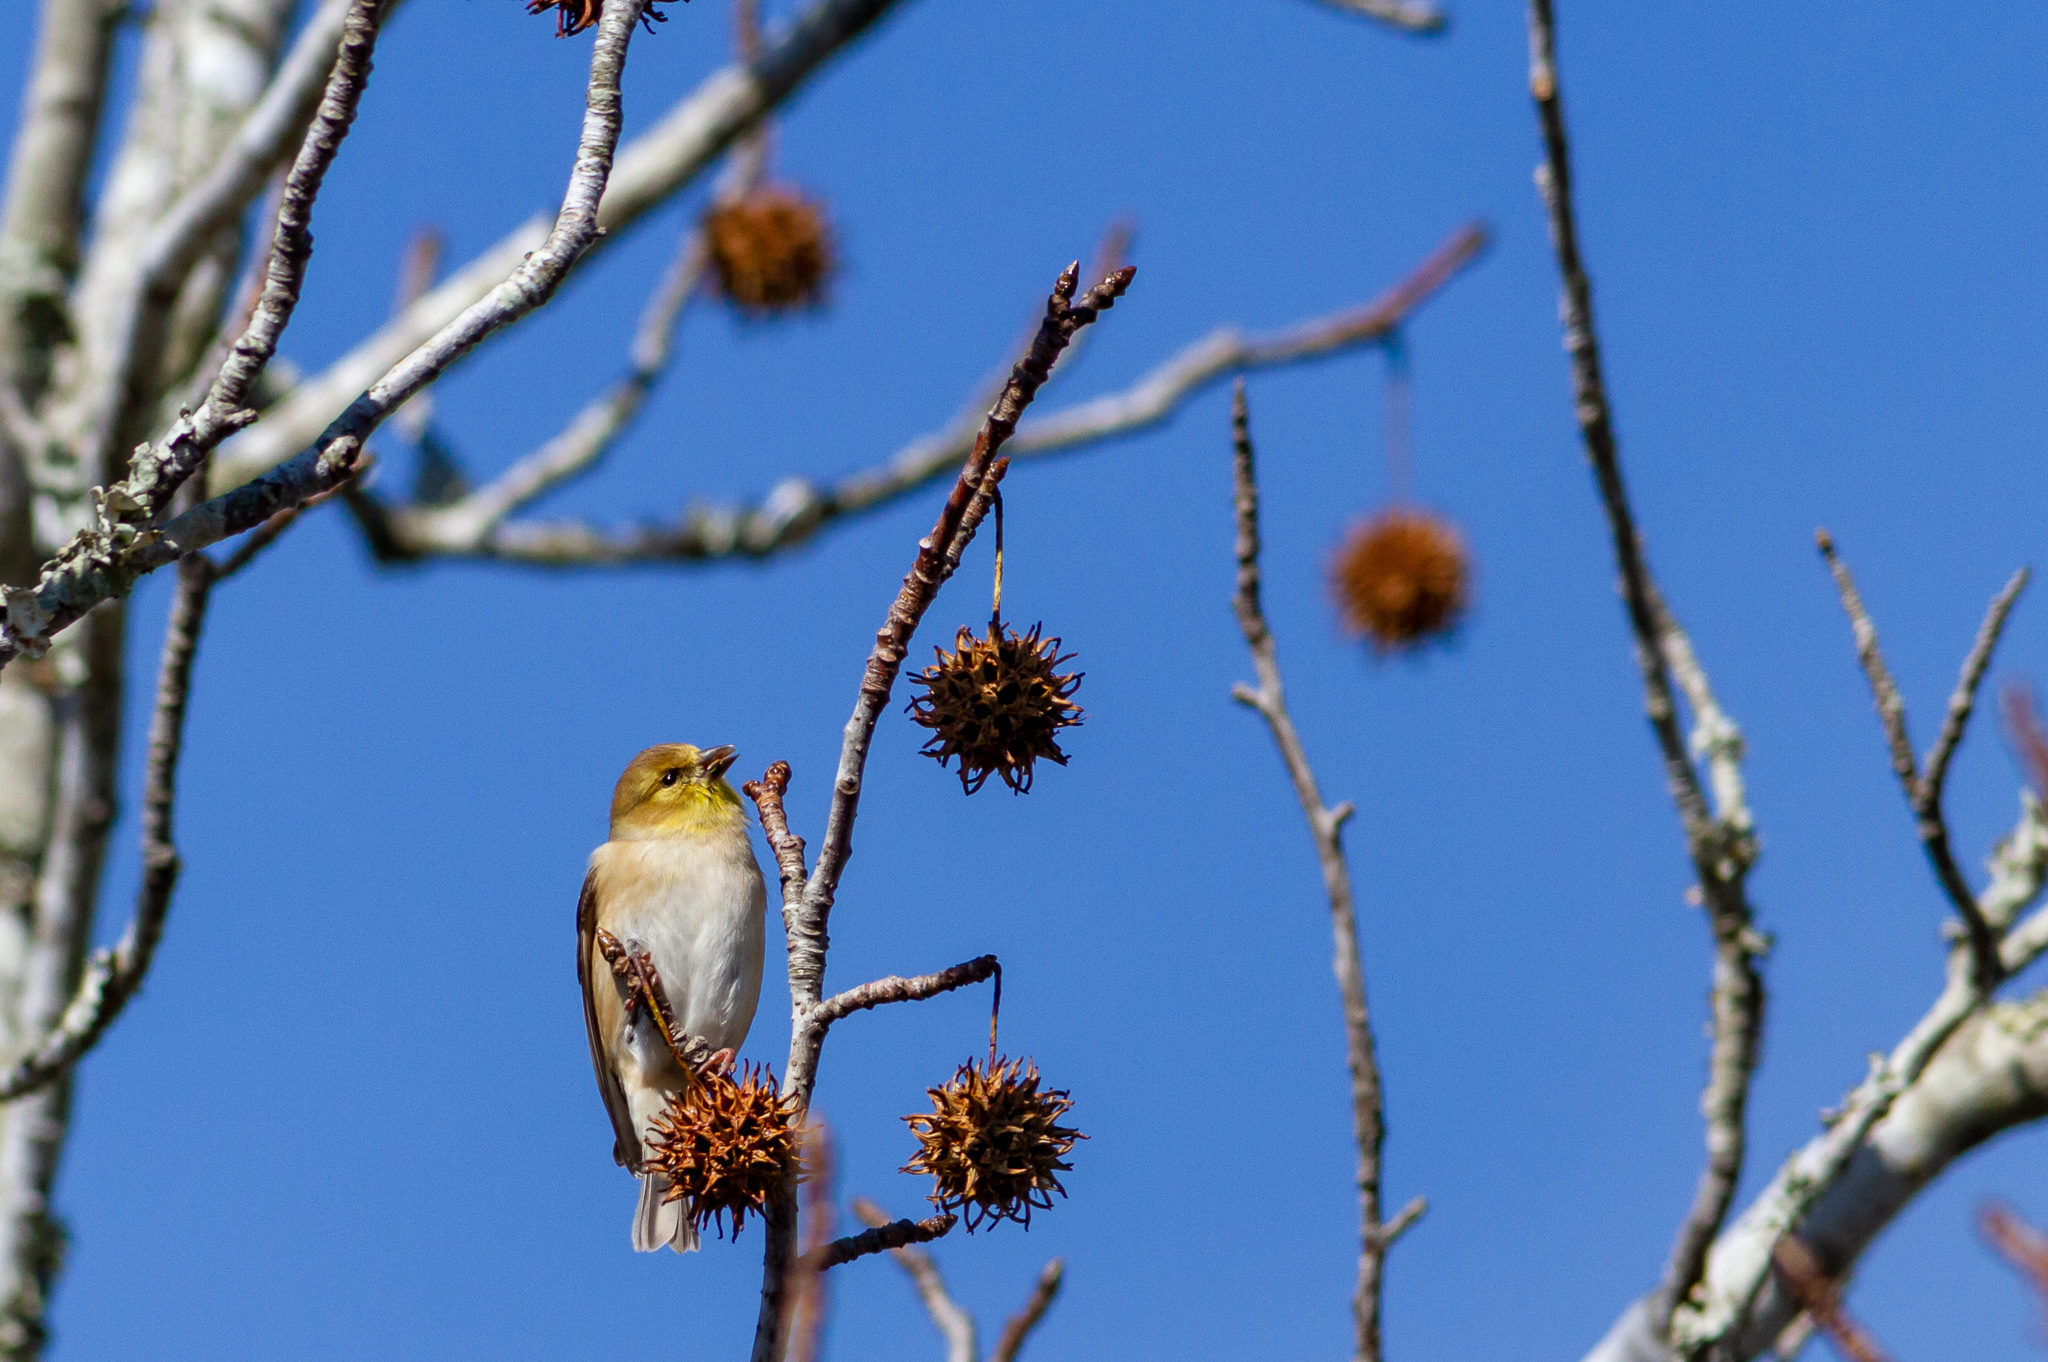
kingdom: Animalia
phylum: Chordata
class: Aves
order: Passeriformes
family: Fringillidae
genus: Spinus
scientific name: Spinus tristis
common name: American goldfinch
